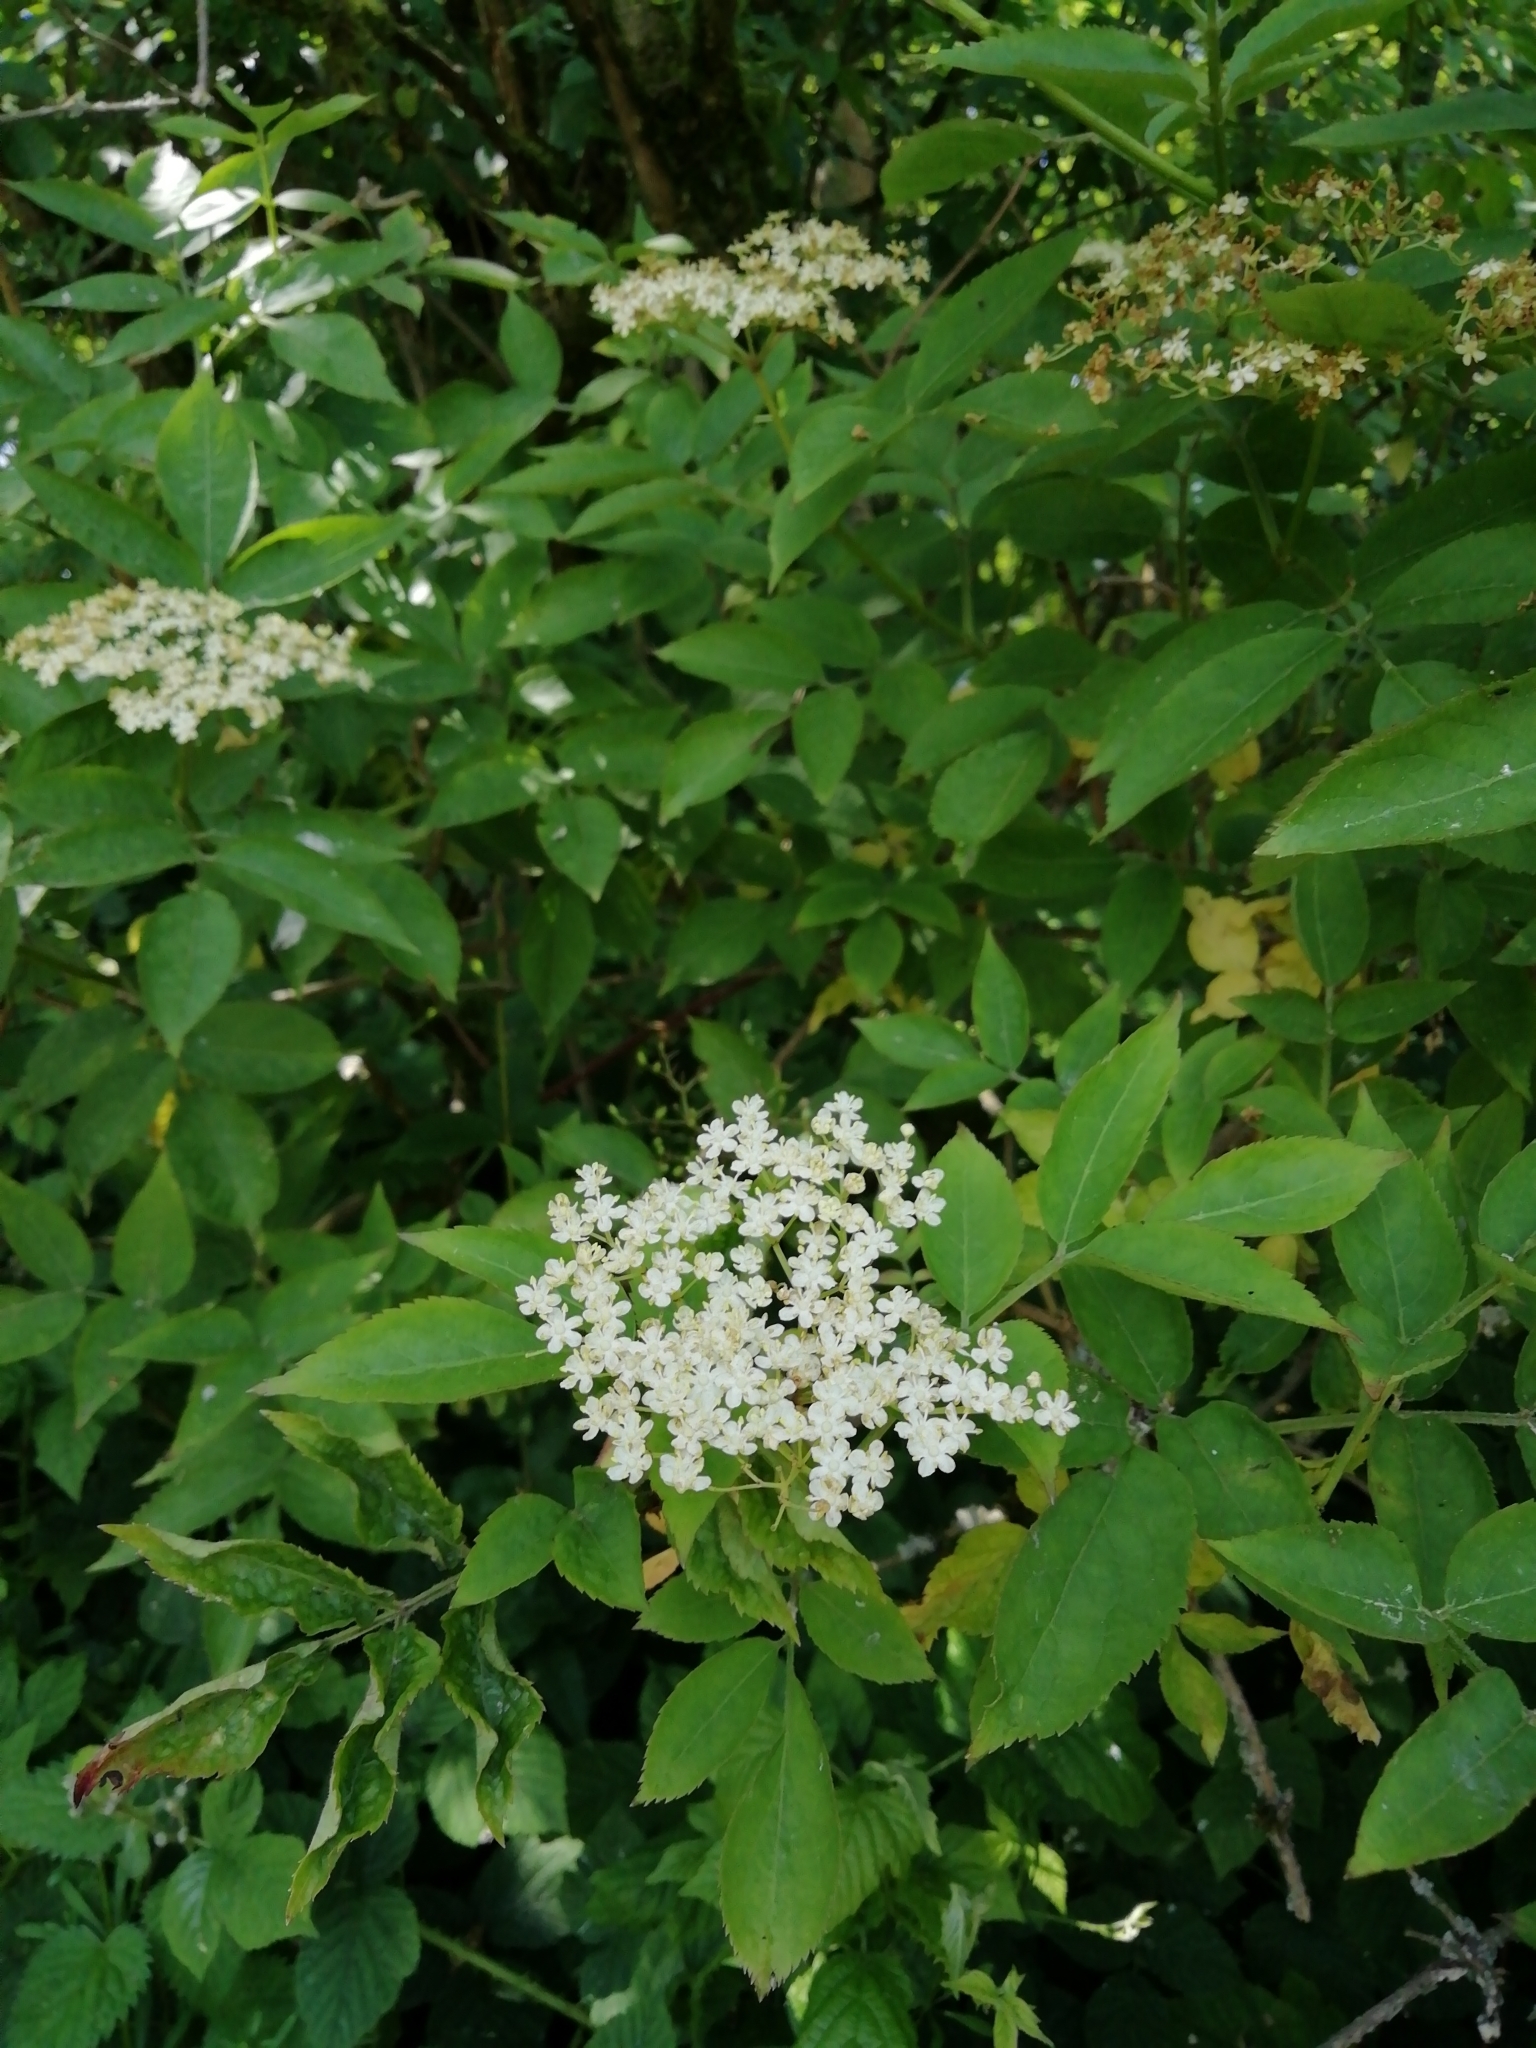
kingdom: Plantae
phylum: Tracheophyta
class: Magnoliopsida
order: Dipsacales
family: Viburnaceae
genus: Sambucus
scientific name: Sambucus nigra
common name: Elder
